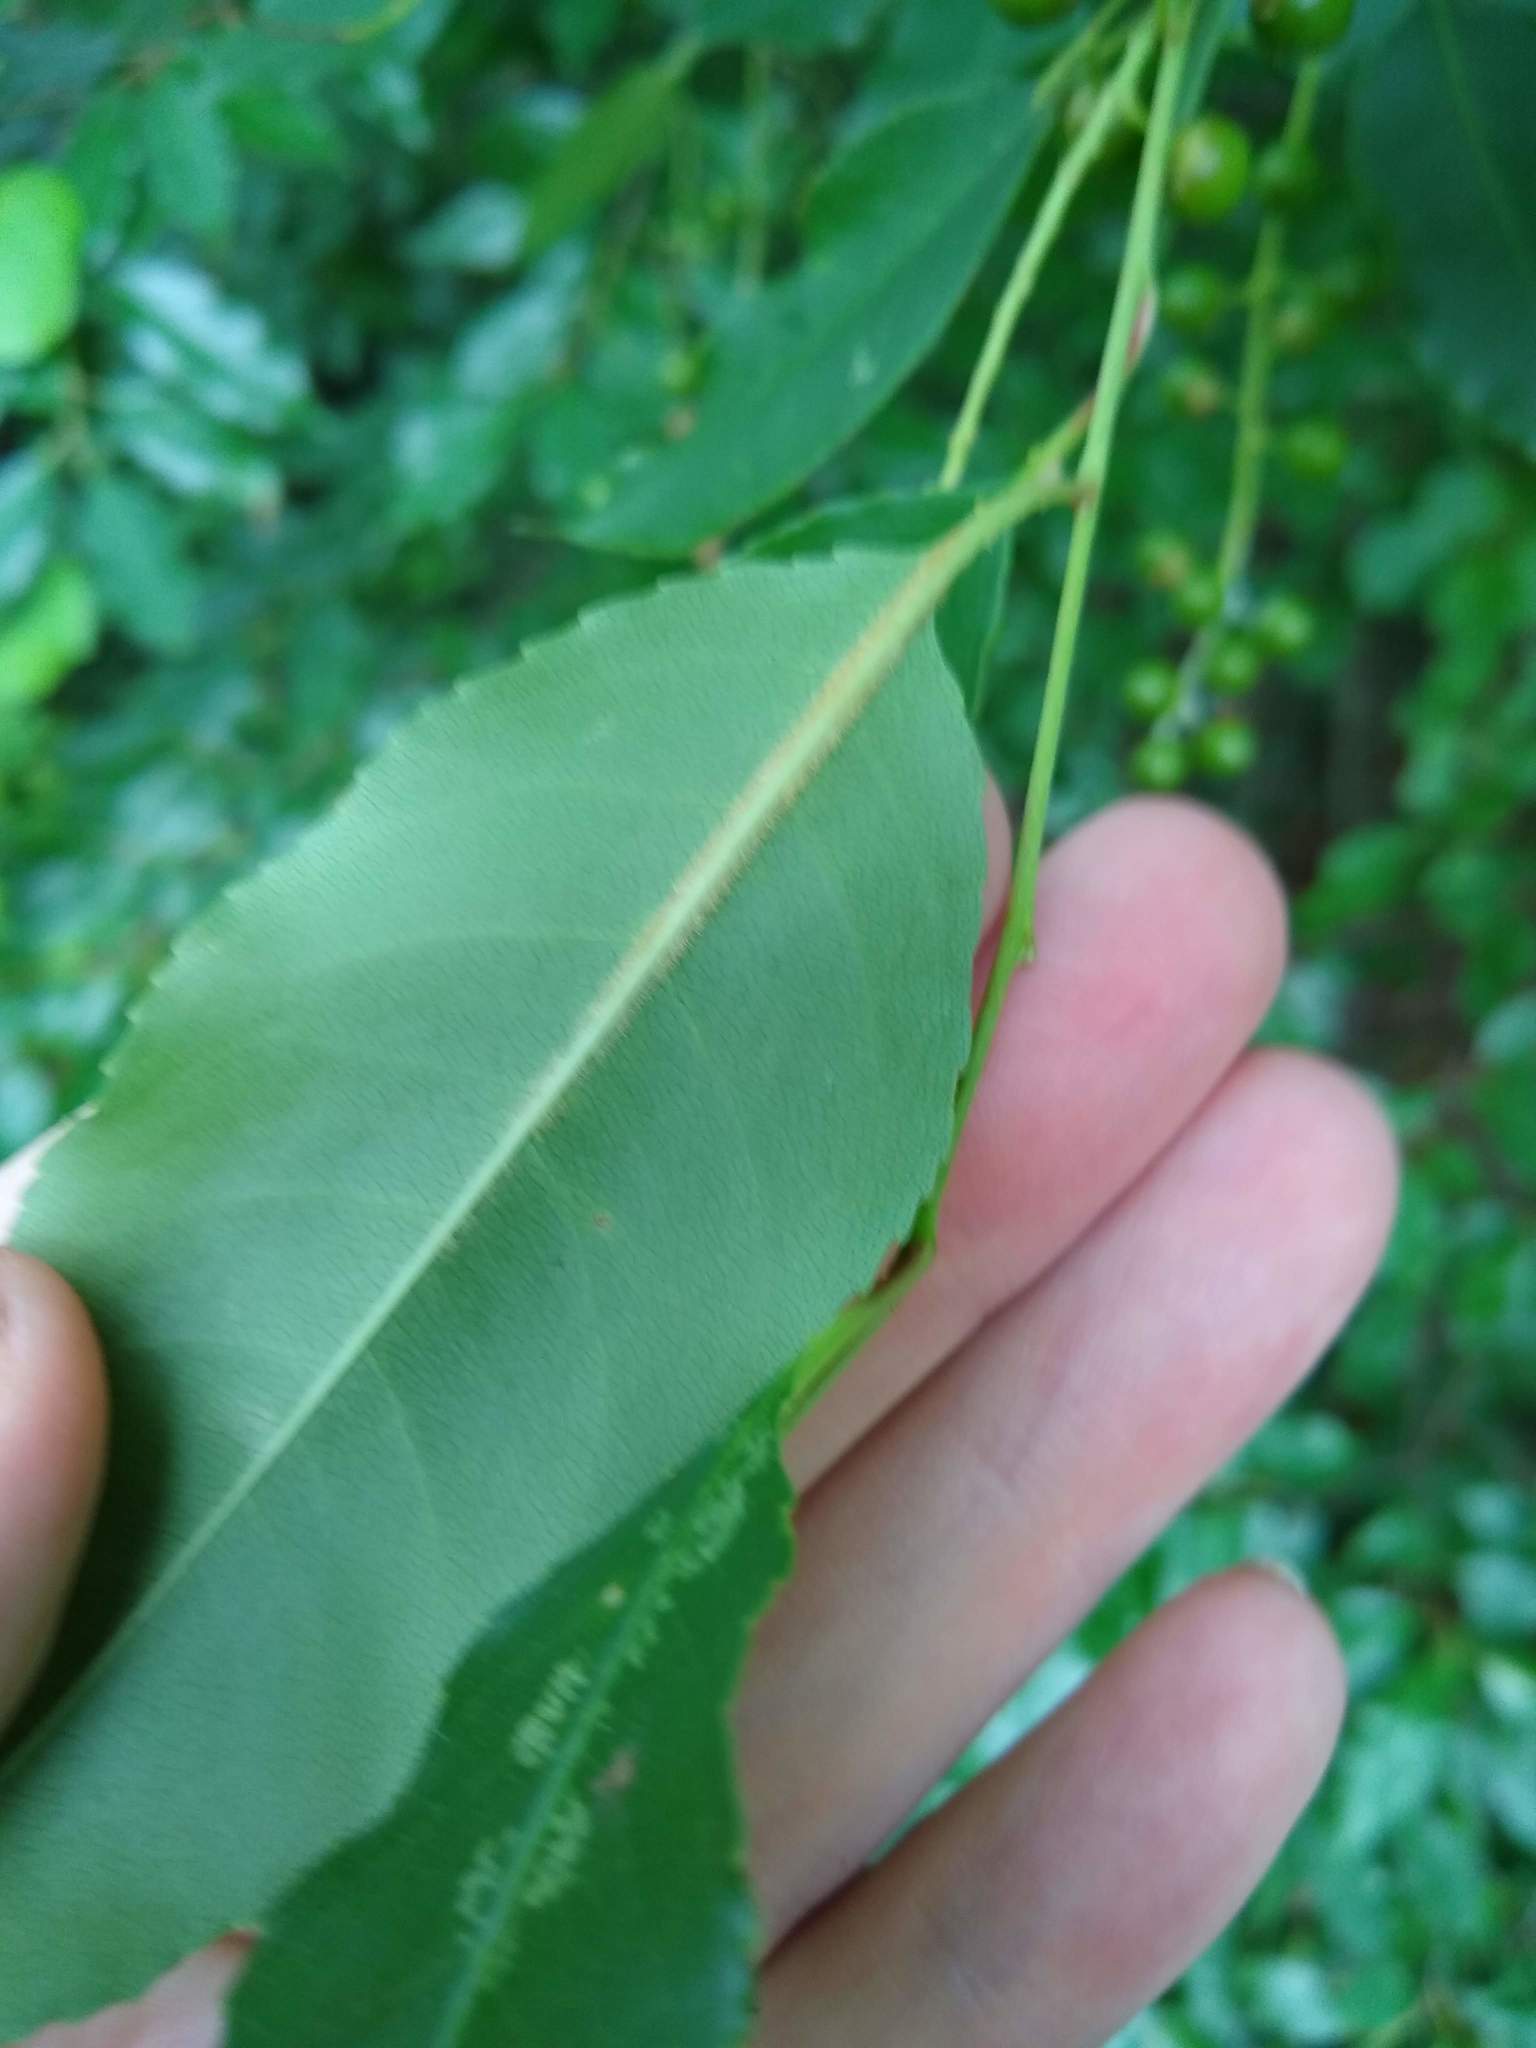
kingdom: Plantae
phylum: Tracheophyta
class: Magnoliopsida
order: Rosales
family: Rosaceae
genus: Prunus
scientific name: Prunus serotina
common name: Black cherry
